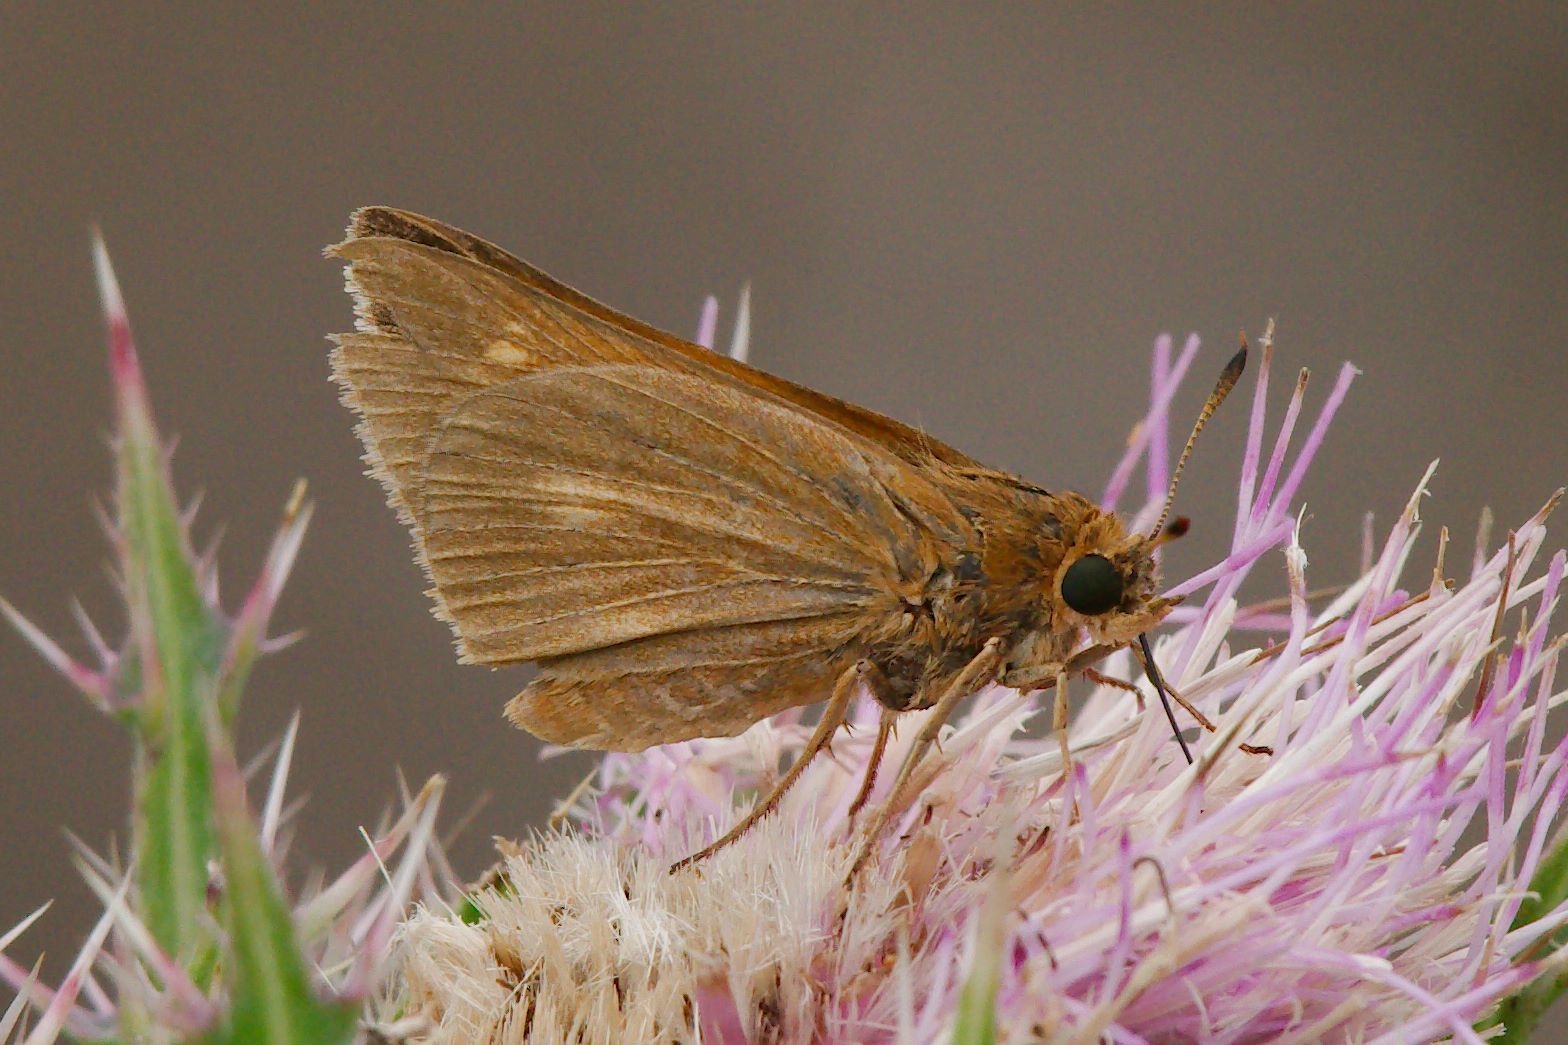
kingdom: Animalia
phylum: Arthropoda
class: Insecta
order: Lepidoptera
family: Hesperiidae
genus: Euphyes
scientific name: Euphyes pilatka
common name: Palatka skipper
